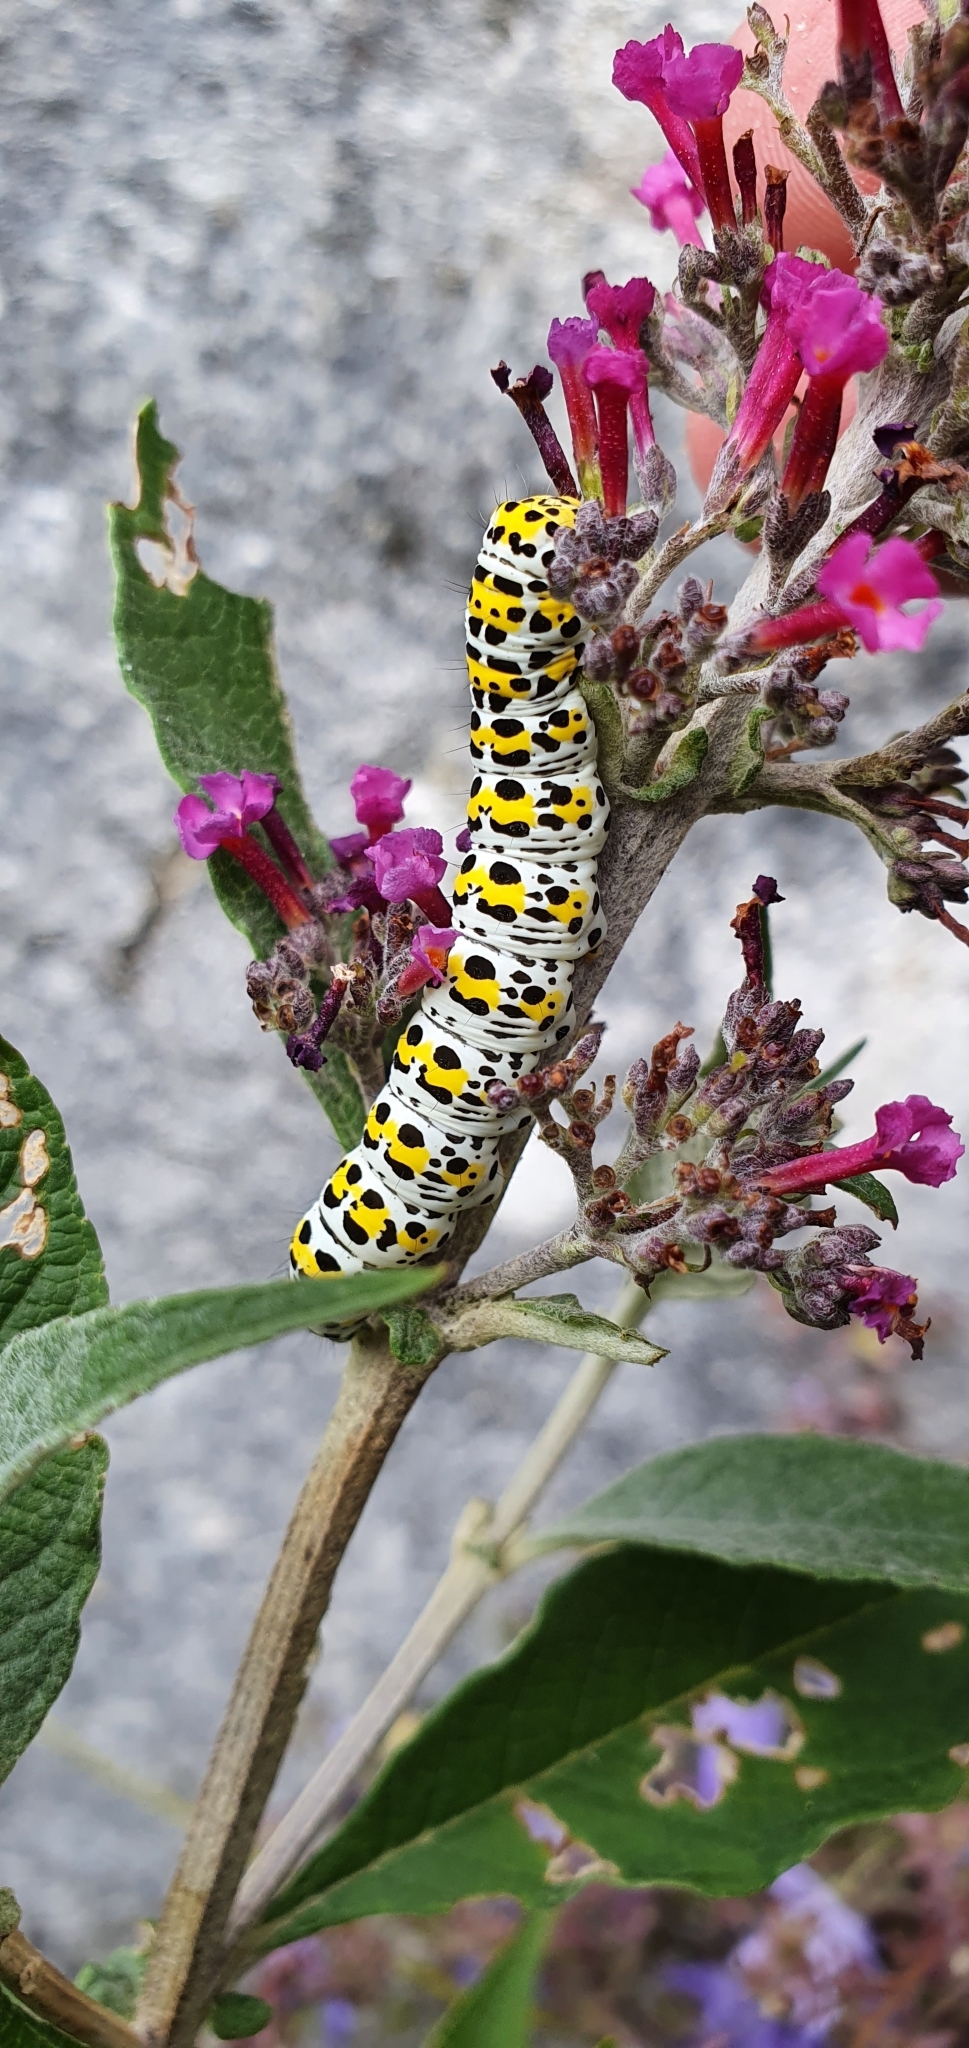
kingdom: Animalia
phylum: Arthropoda
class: Insecta
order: Lepidoptera
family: Noctuidae
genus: Cucullia
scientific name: Cucullia verbasci
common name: Mullein
